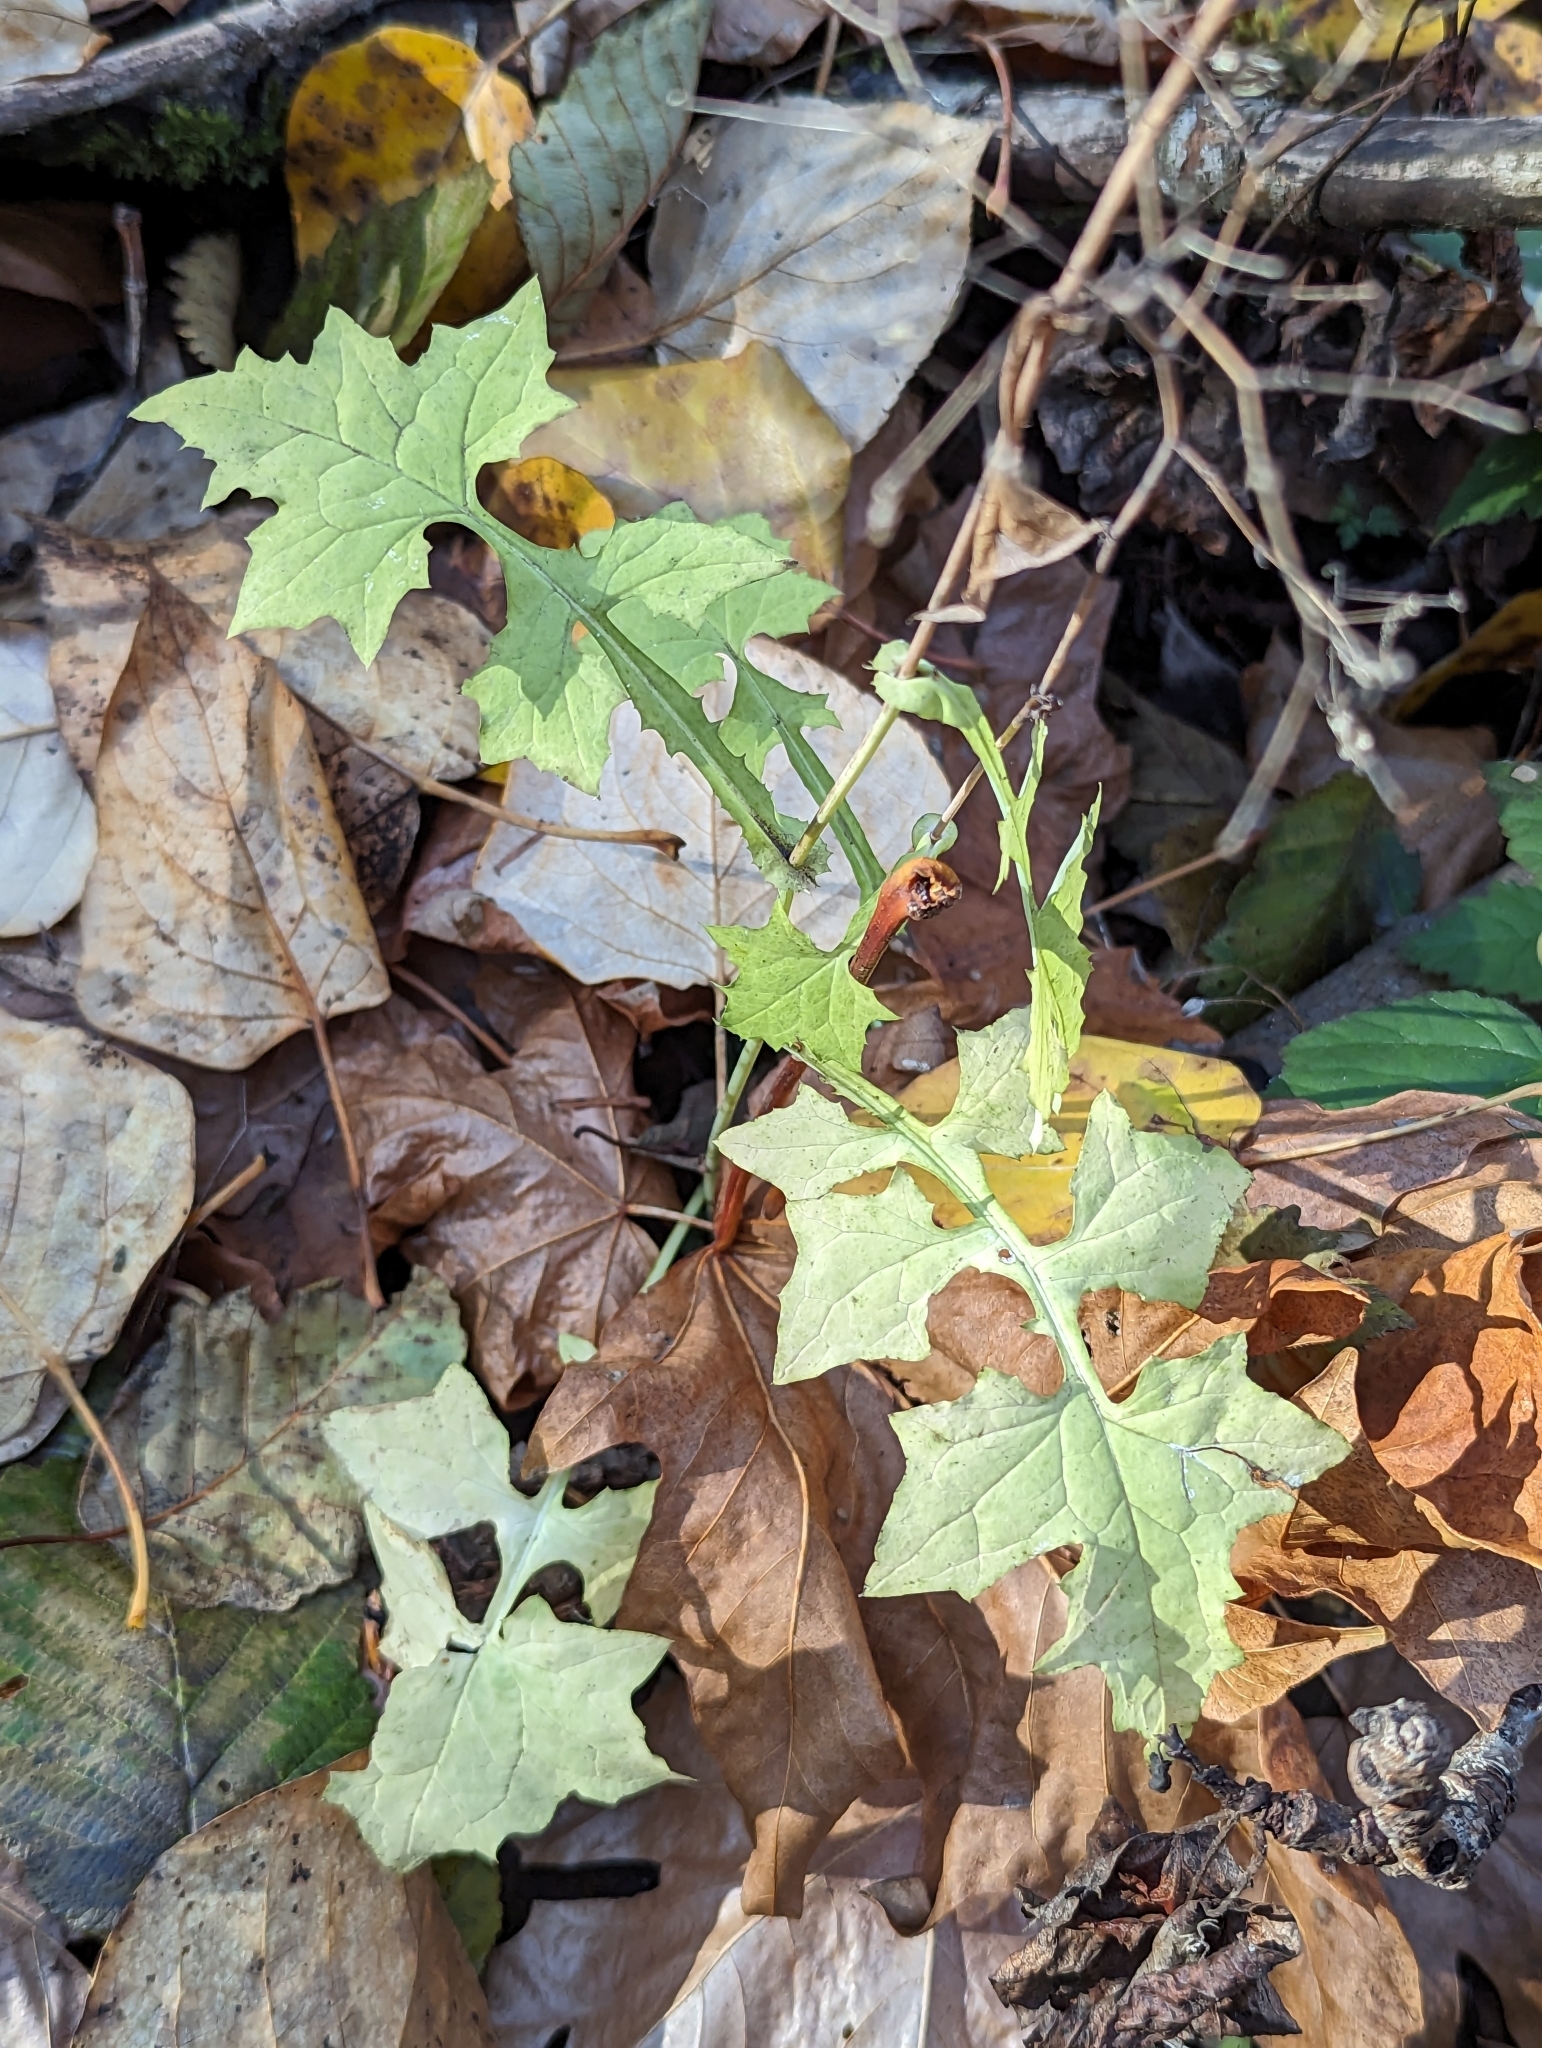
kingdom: Plantae
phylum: Tracheophyta
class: Magnoliopsida
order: Asterales
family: Asteraceae
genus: Mycelis
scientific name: Mycelis muralis
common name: Wall lettuce
